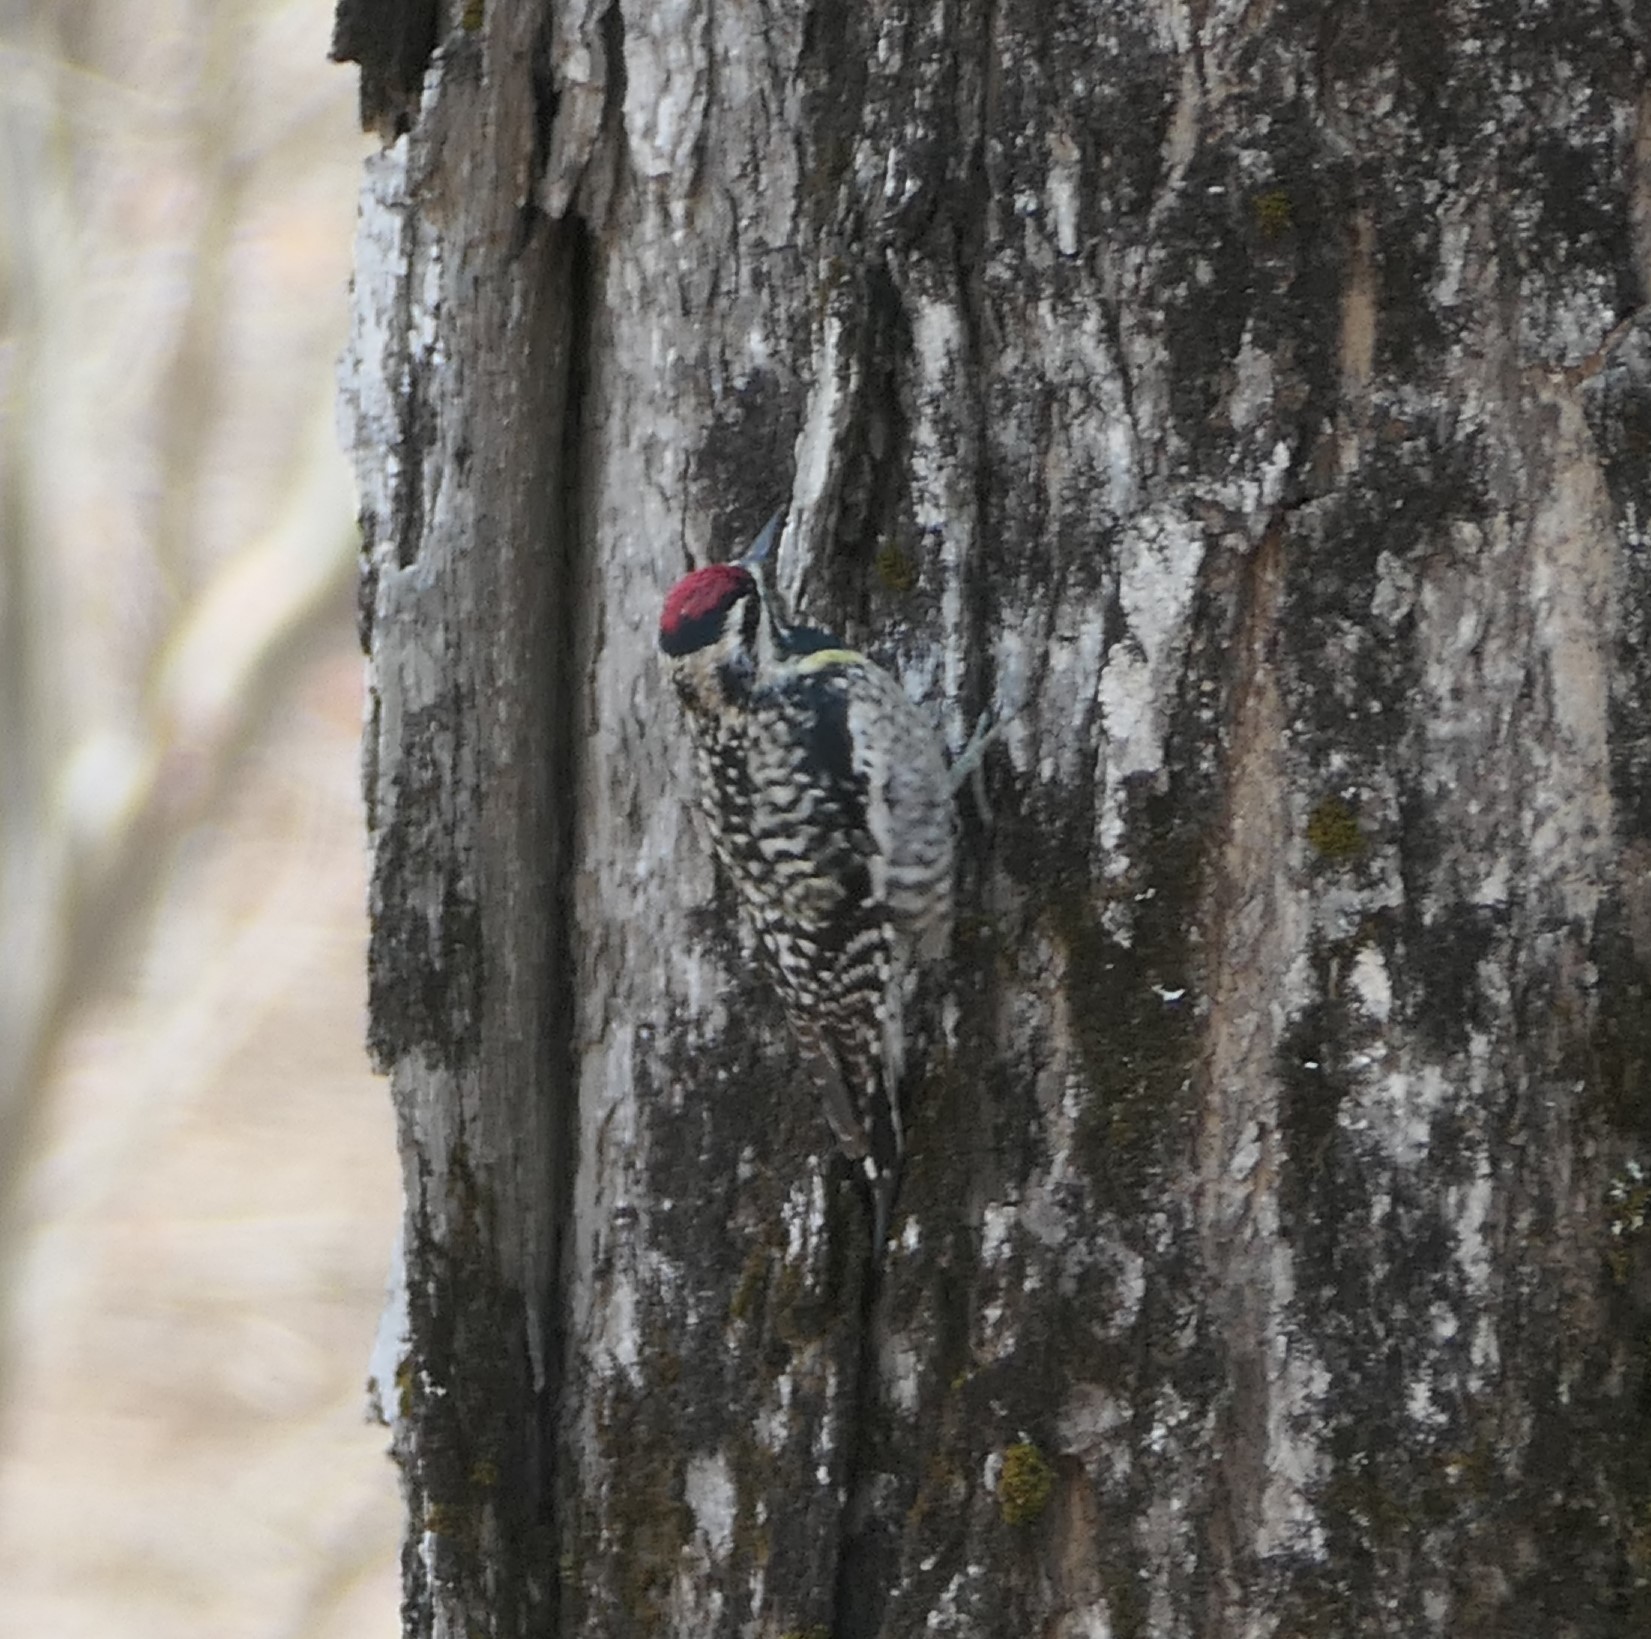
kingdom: Animalia
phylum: Chordata
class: Aves
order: Piciformes
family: Picidae
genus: Sphyrapicus
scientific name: Sphyrapicus varius
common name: Yellow-bellied sapsucker
